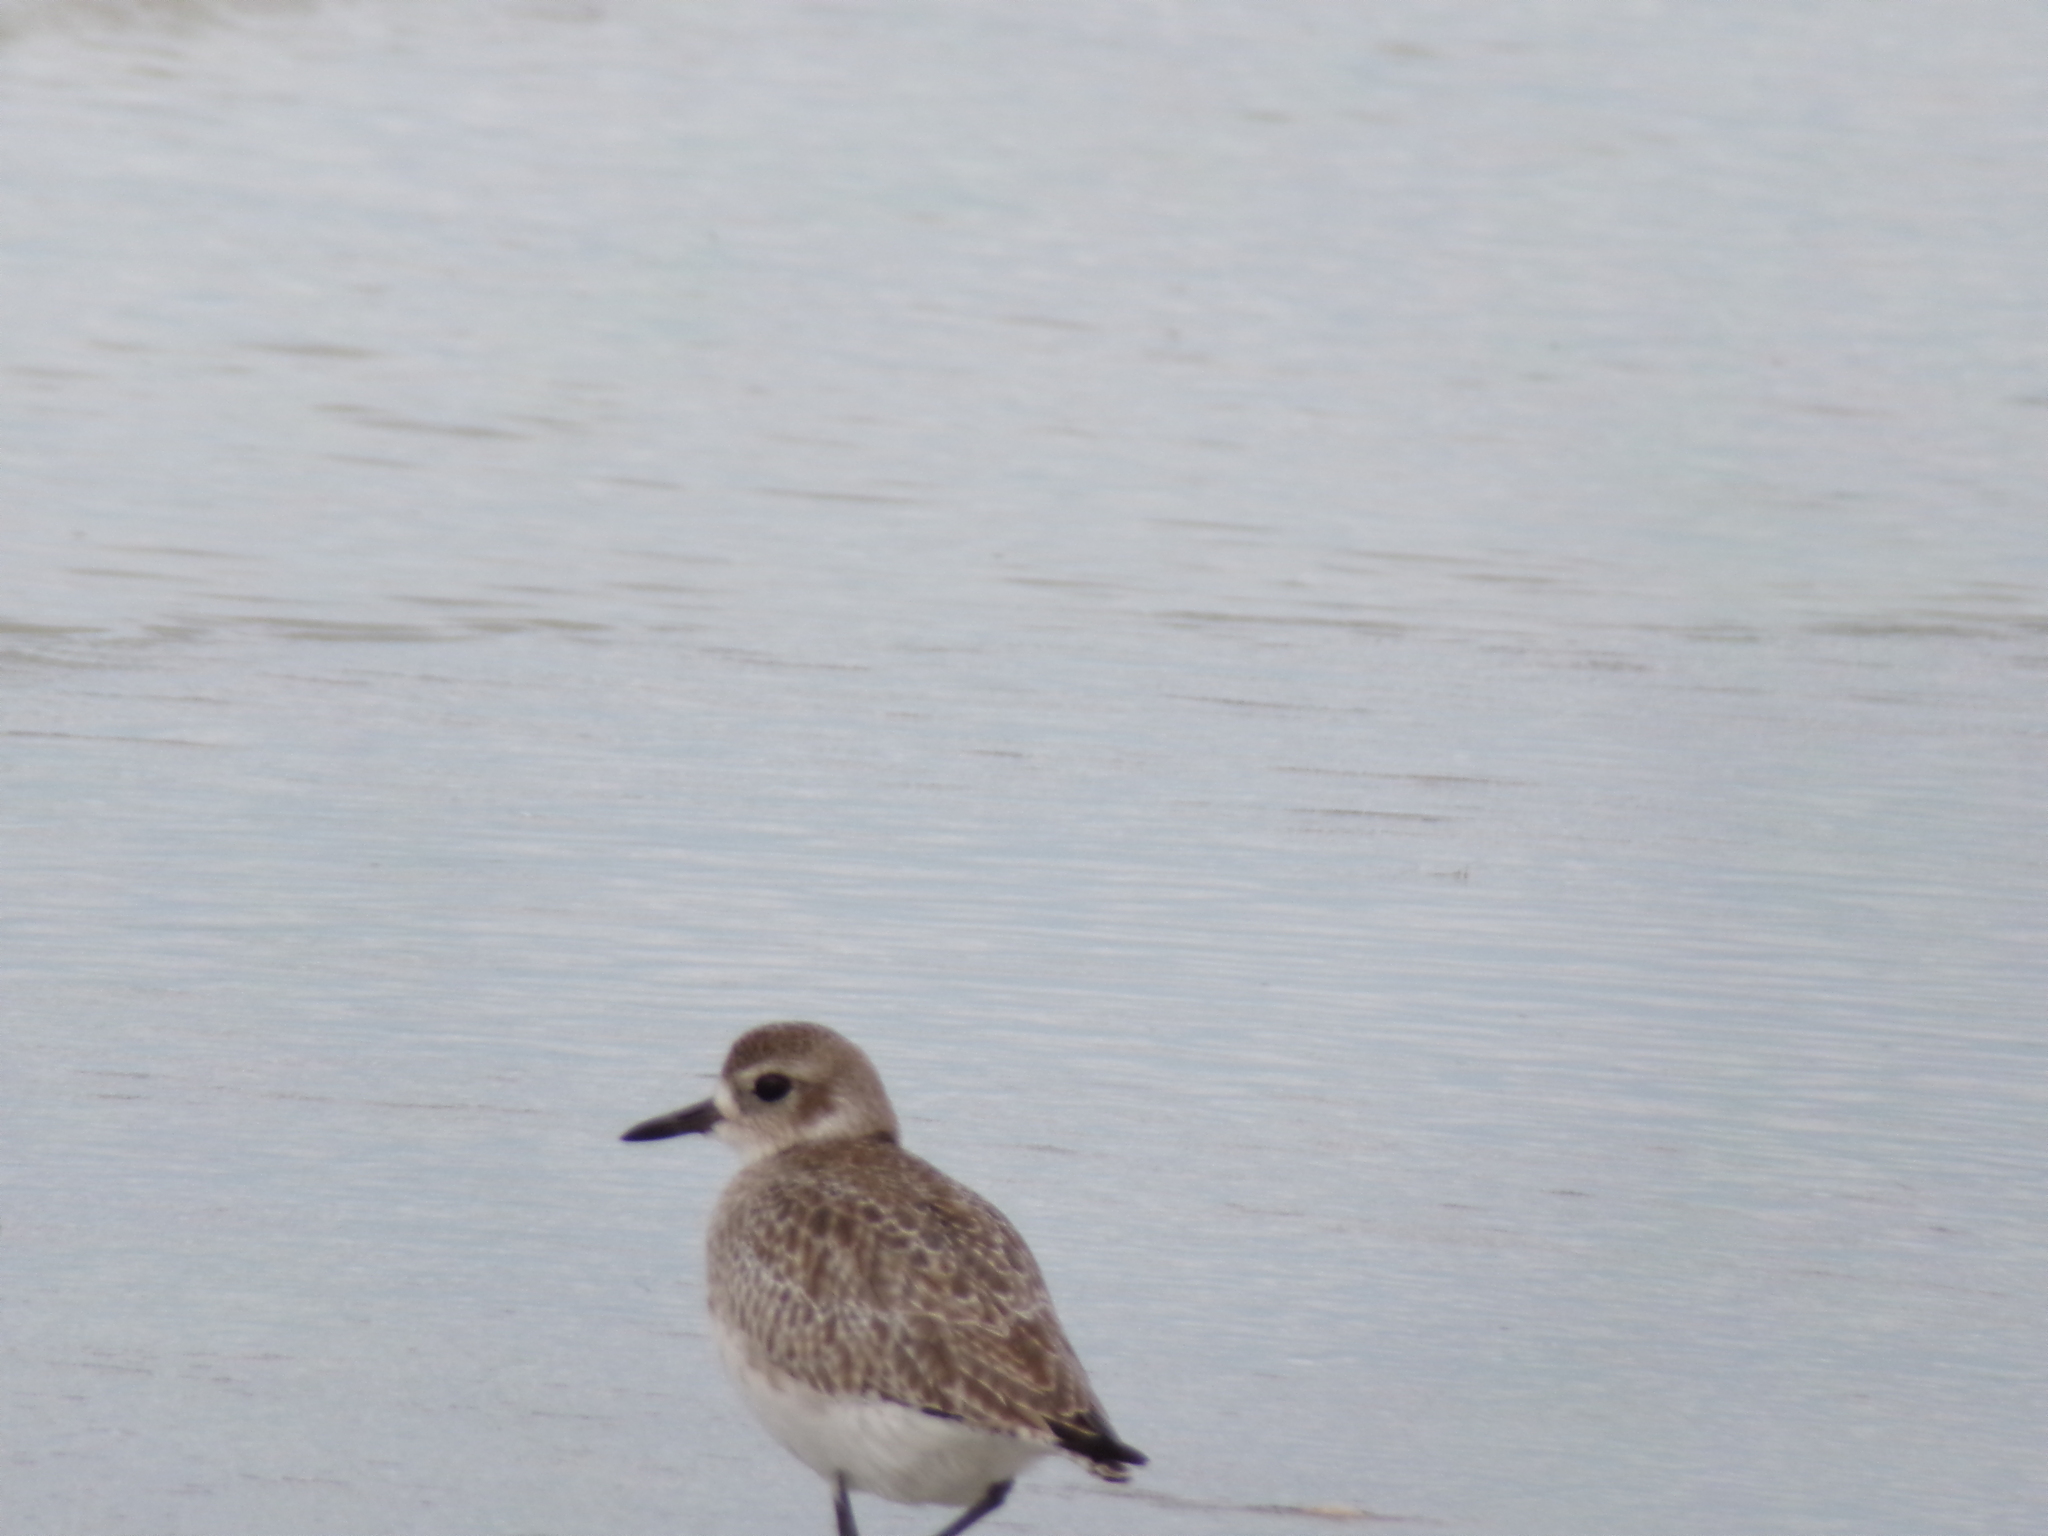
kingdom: Animalia
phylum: Chordata
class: Aves
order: Charadriiformes
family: Charadriidae
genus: Pluvialis
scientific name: Pluvialis squatarola
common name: Grey plover
